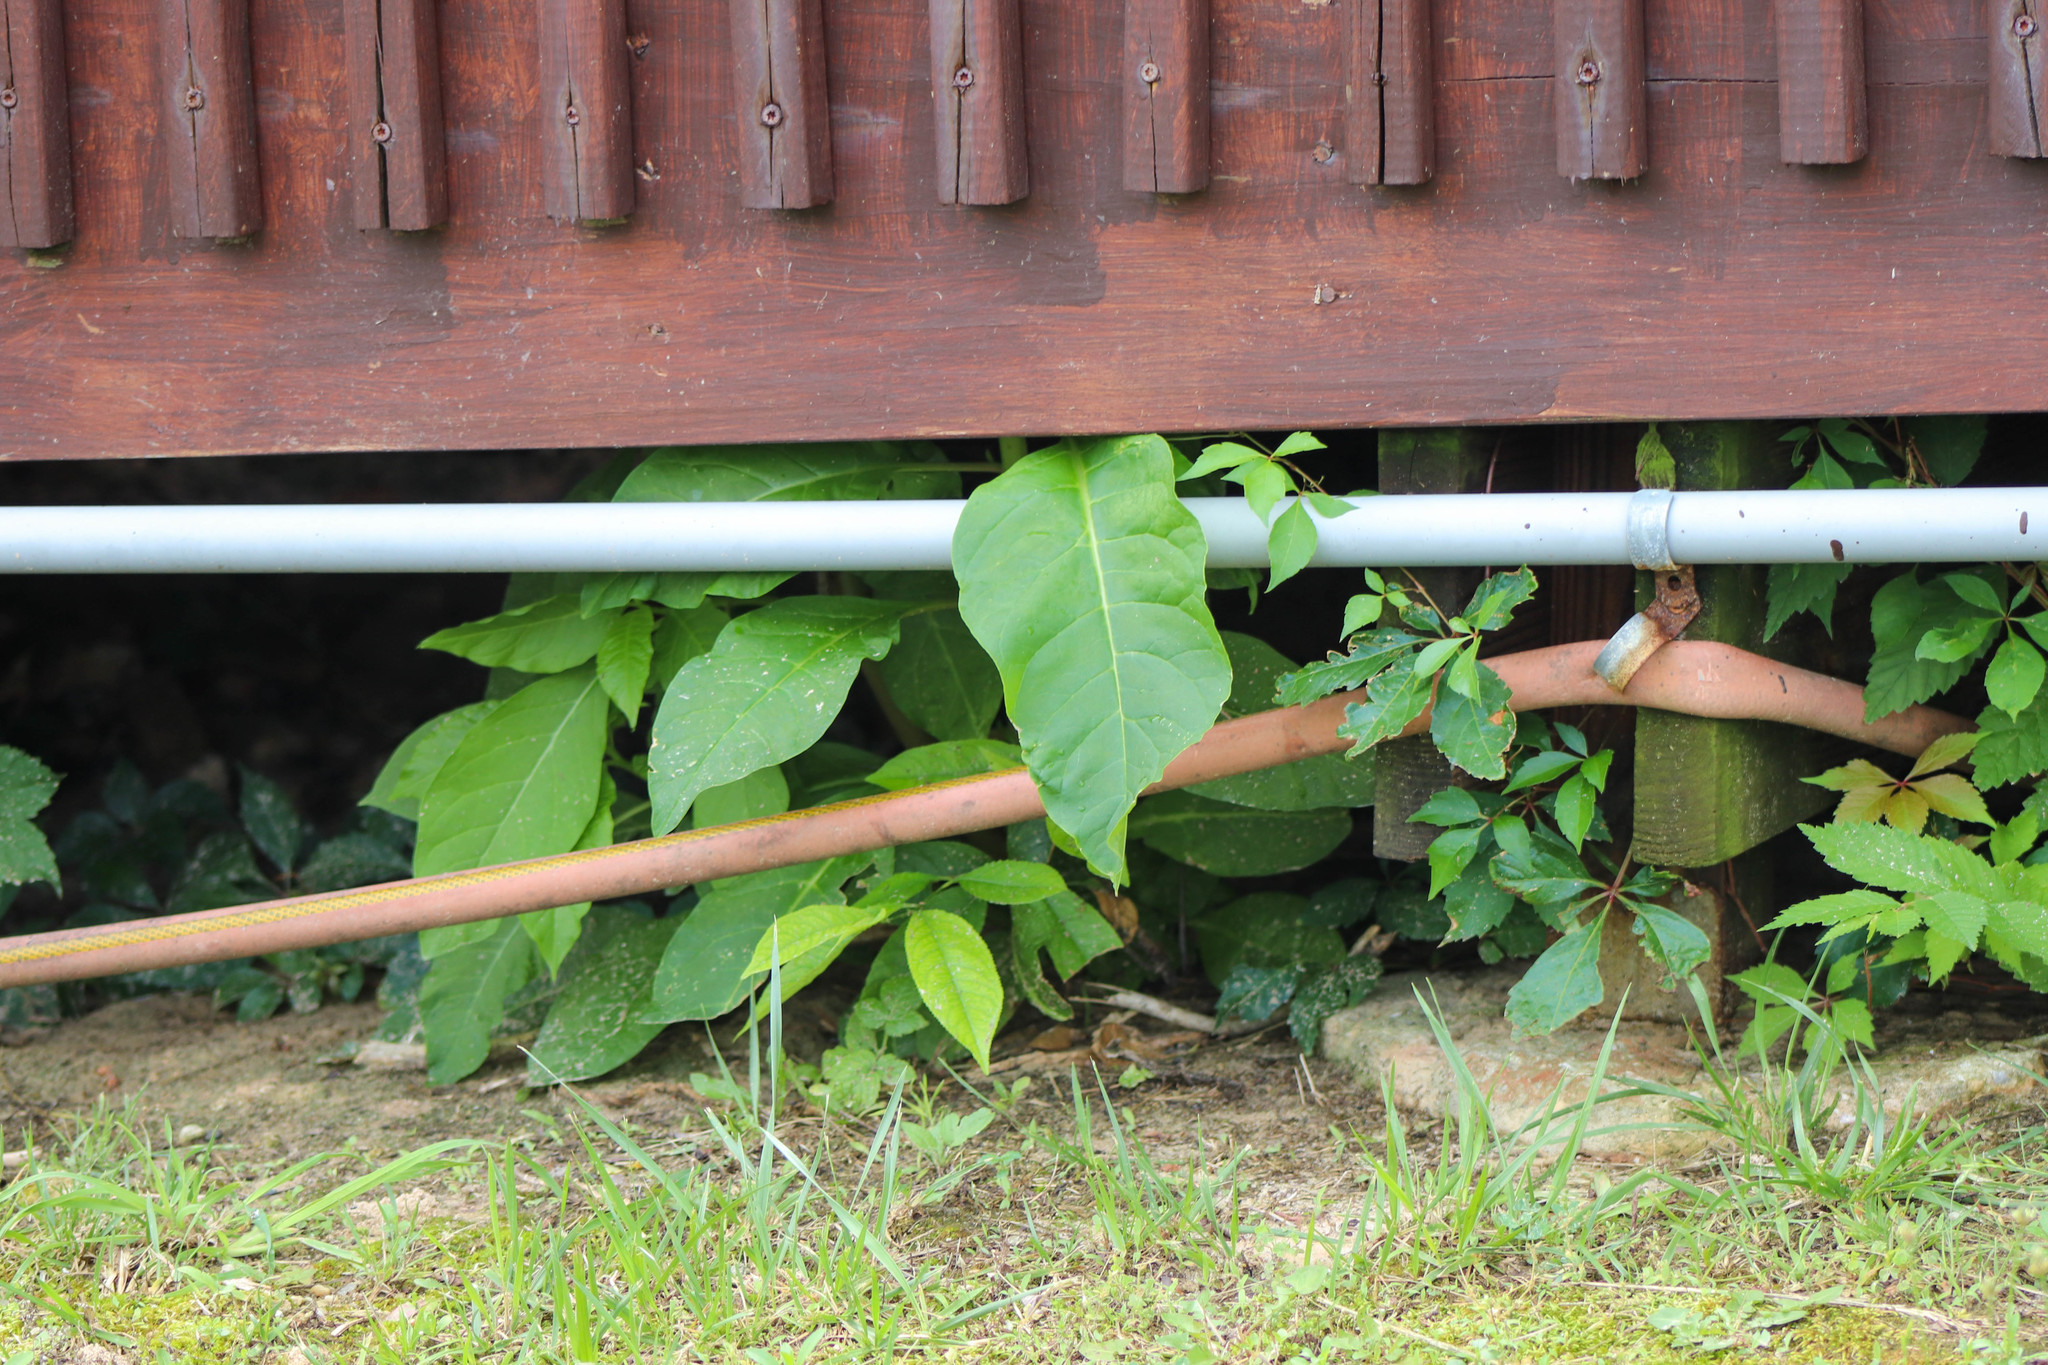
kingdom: Plantae
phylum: Tracheophyta
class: Magnoliopsida
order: Caryophyllales
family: Phytolaccaceae
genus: Phytolacca
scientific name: Phytolacca americana
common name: American pokeweed
